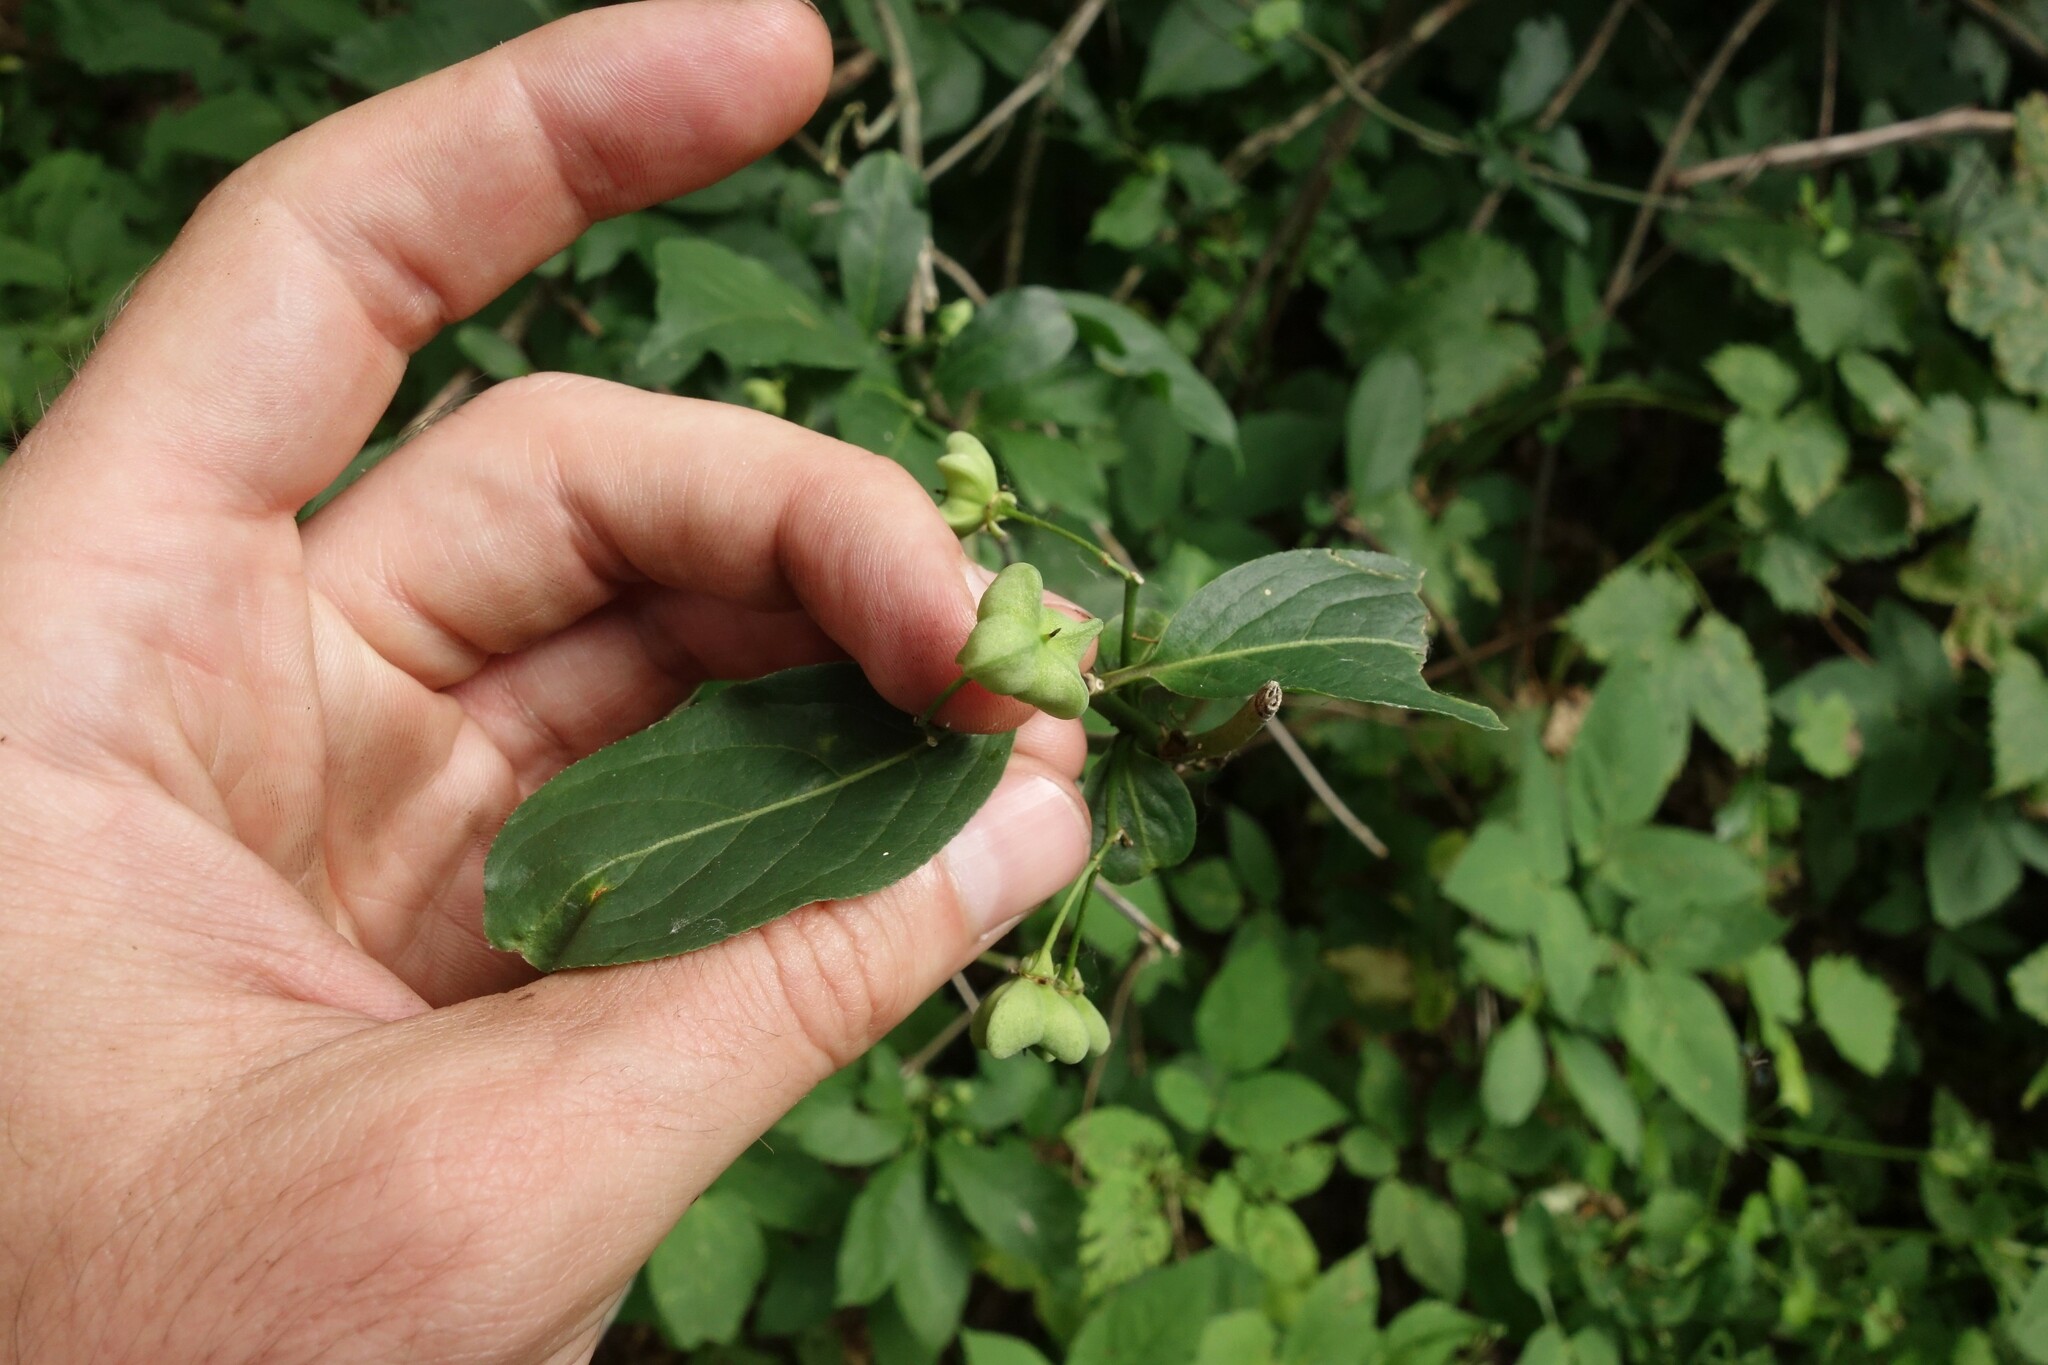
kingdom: Plantae
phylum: Tracheophyta
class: Magnoliopsida
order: Celastrales
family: Celastraceae
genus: Euonymus
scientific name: Euonymus europaeus
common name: Spindle
